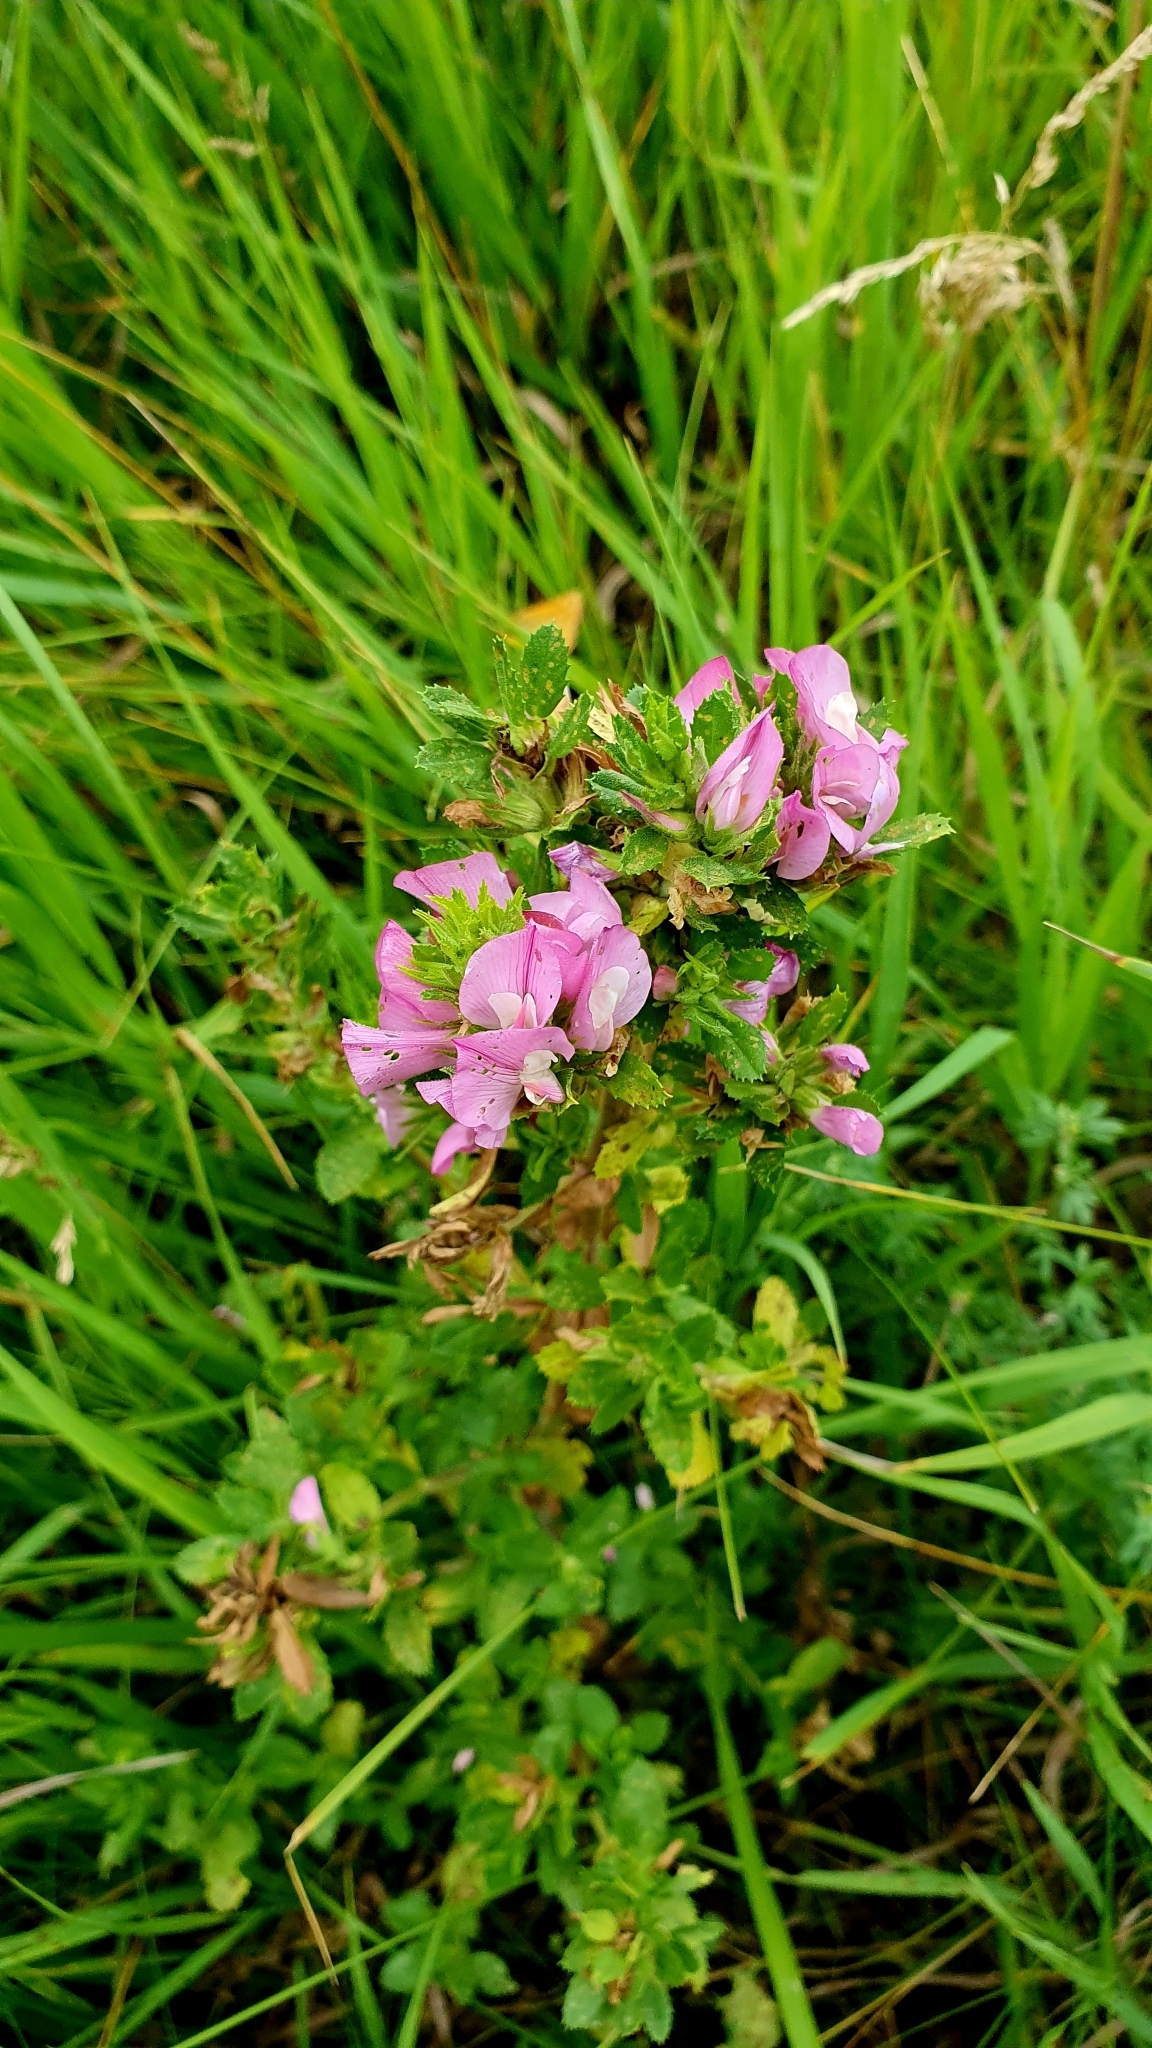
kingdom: Plantae
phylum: Tracheophyta
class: Magnoliopsida
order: Fabales
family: Fabaceae
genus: Ononis
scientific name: Ononis arvensis
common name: Field restharrow
